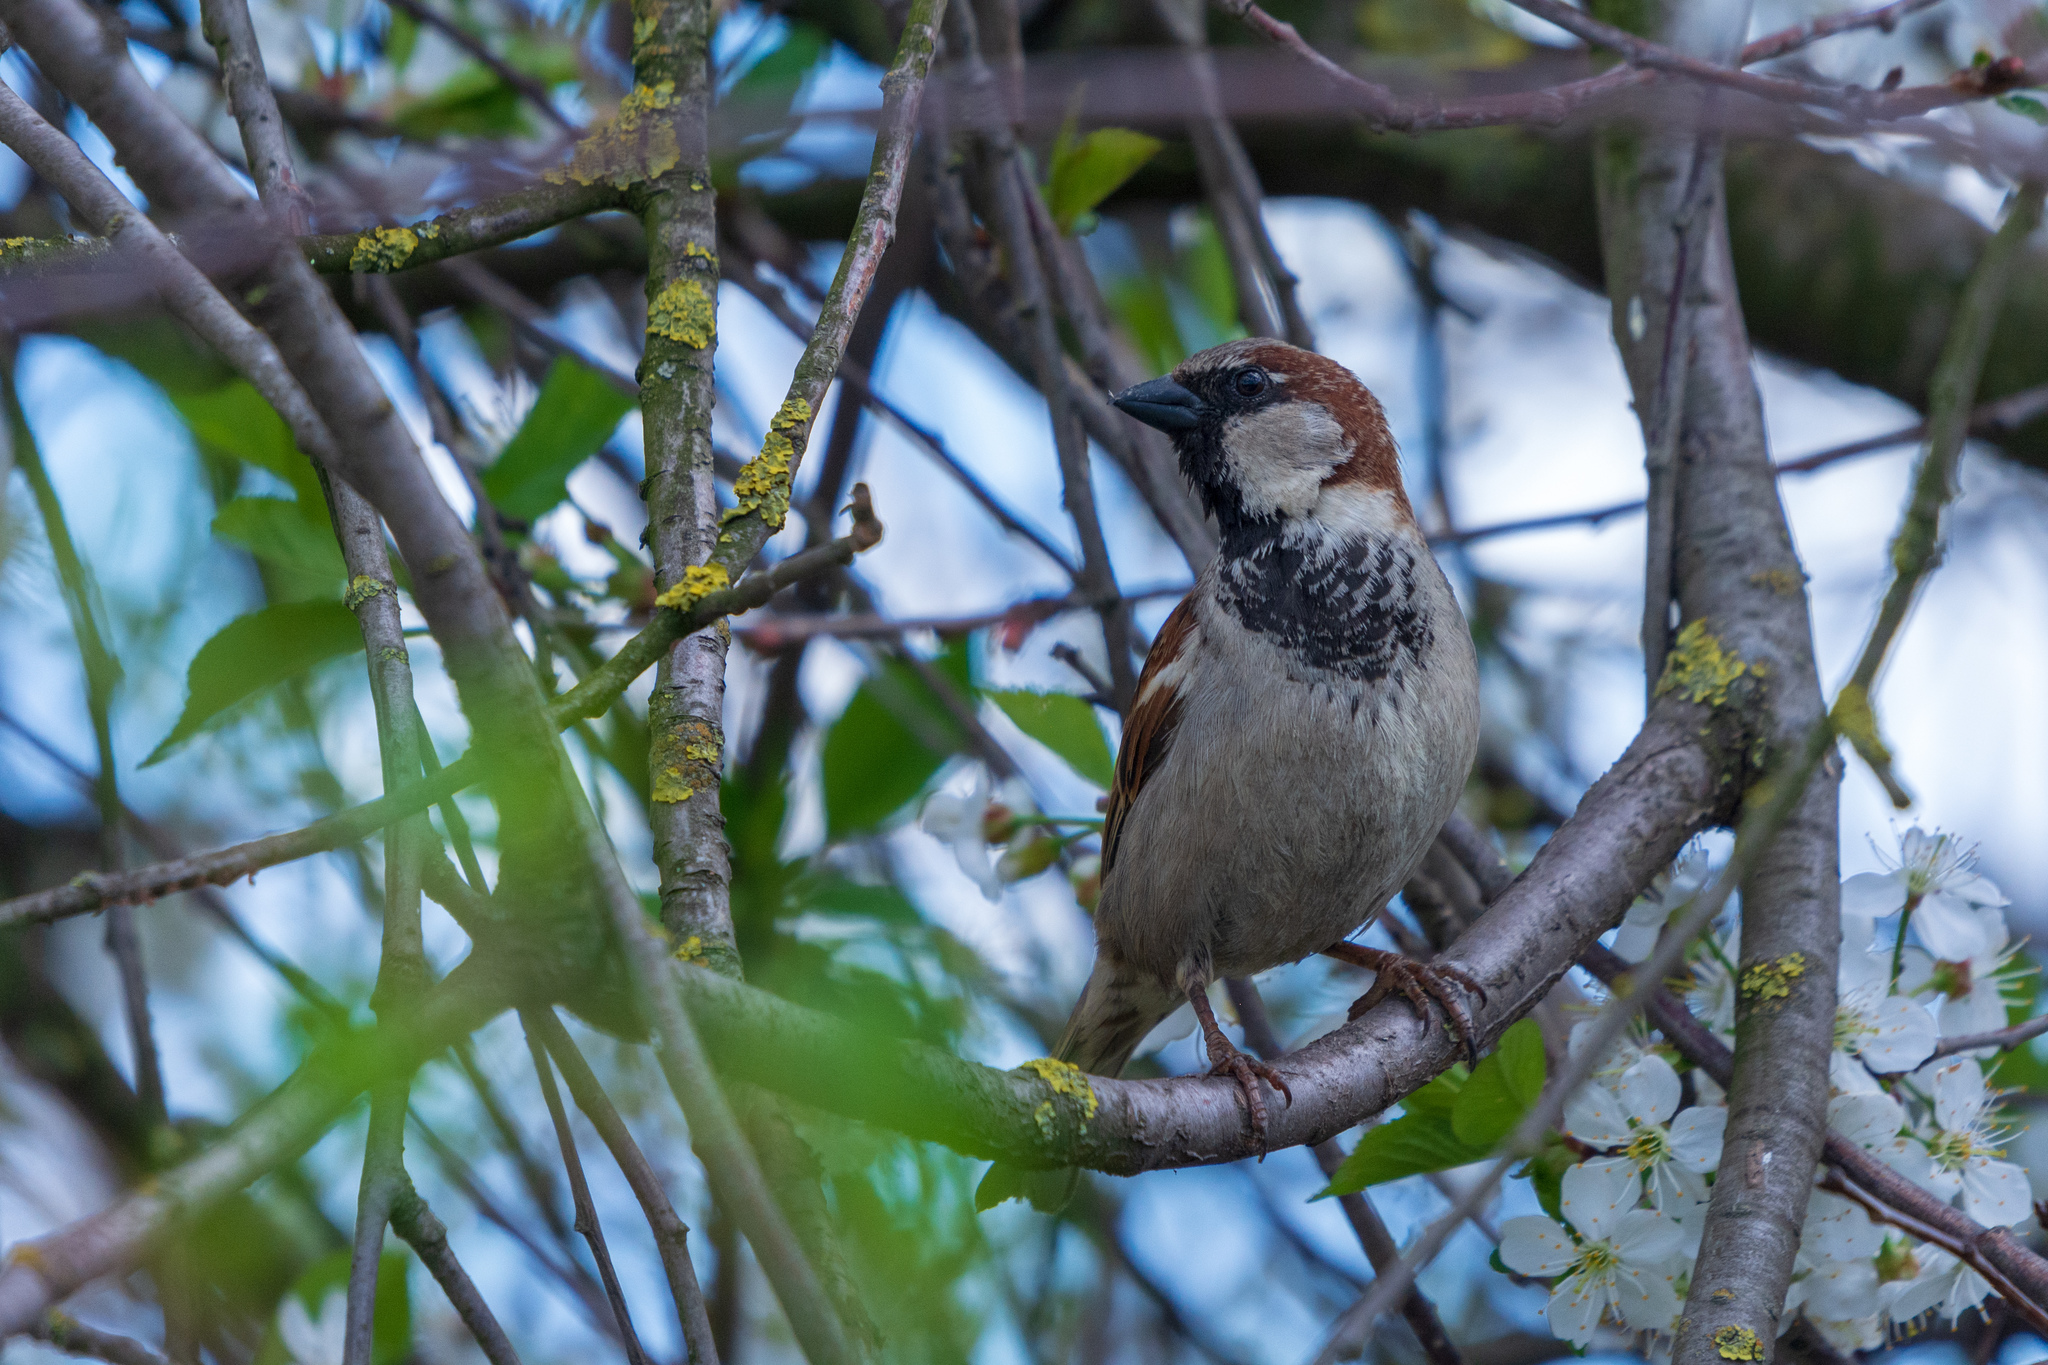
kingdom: Animalia
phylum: Chordata
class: Aves
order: Passeriformes
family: Passeridae
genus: Passer
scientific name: Passer domesticus
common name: House sparrow
